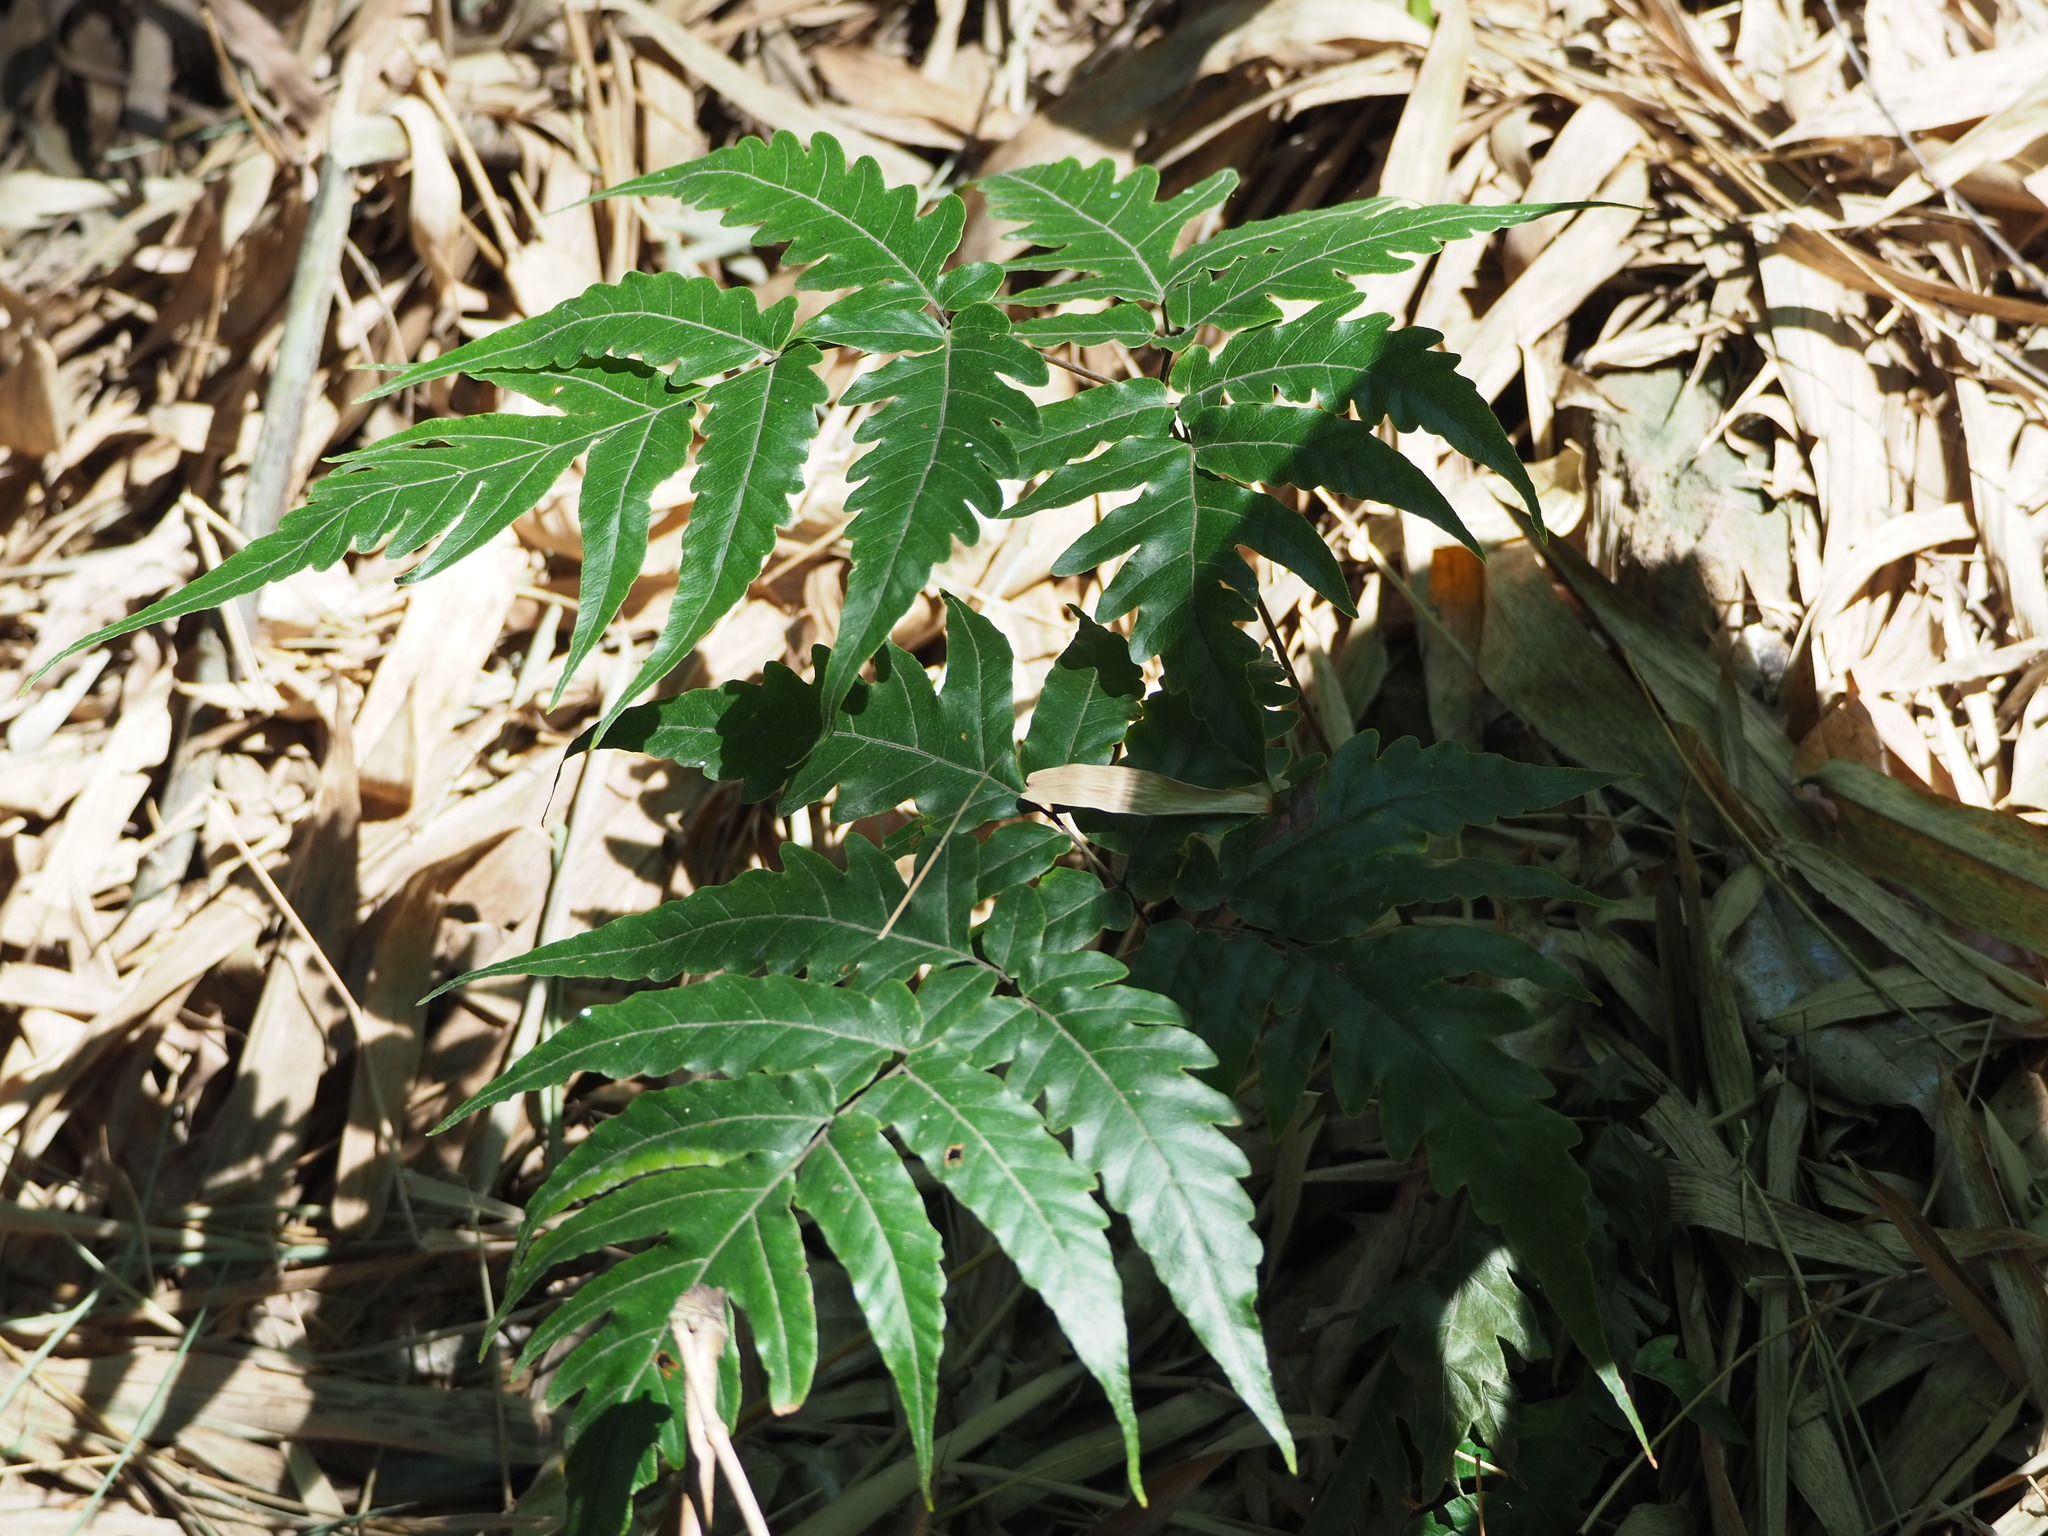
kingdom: Plantae
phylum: Tracheophyta
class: Polypodiopsida
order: Polypodiales
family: Tectariaceae
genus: Tectaria
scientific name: Tectaria impressa
